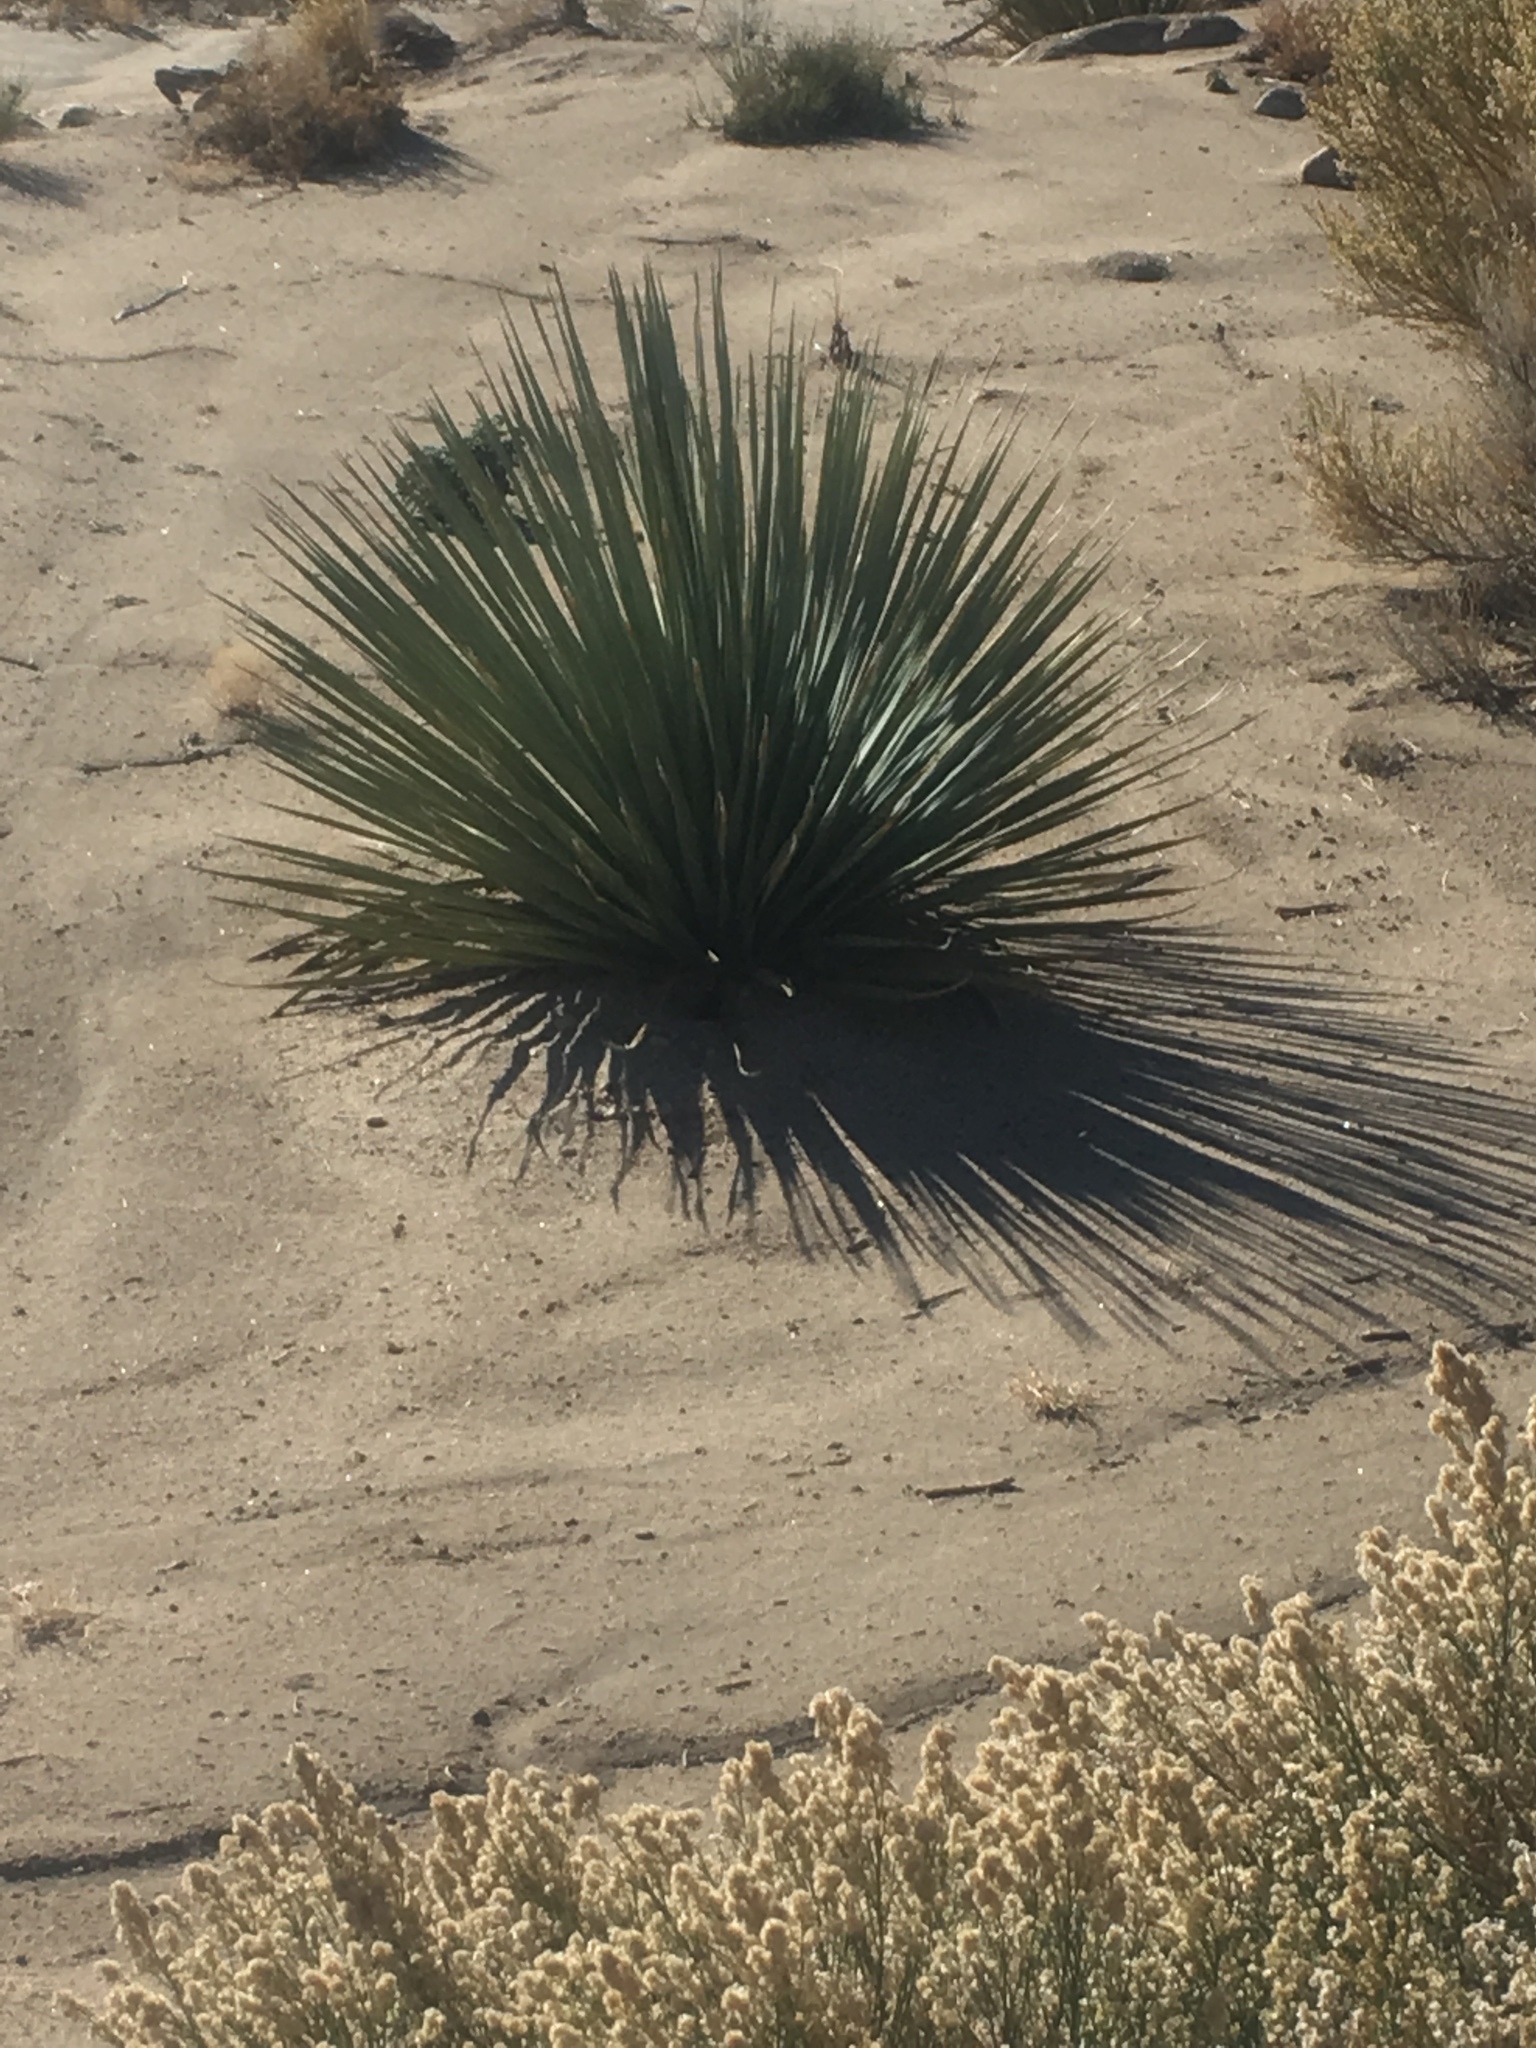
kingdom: Plantae
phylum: Tracheophyta
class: Liliopsida
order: Asparagales
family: Asparagaceae
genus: Nolina
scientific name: Nolina parryi
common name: Parry nolina
